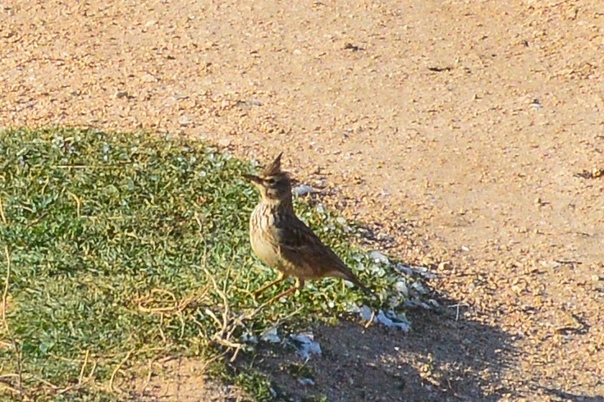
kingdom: Animalia
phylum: Chordata
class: Aves
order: Passeriformes
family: Alaudidae
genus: Galerida
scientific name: Galerida cristata
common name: Crested lark
